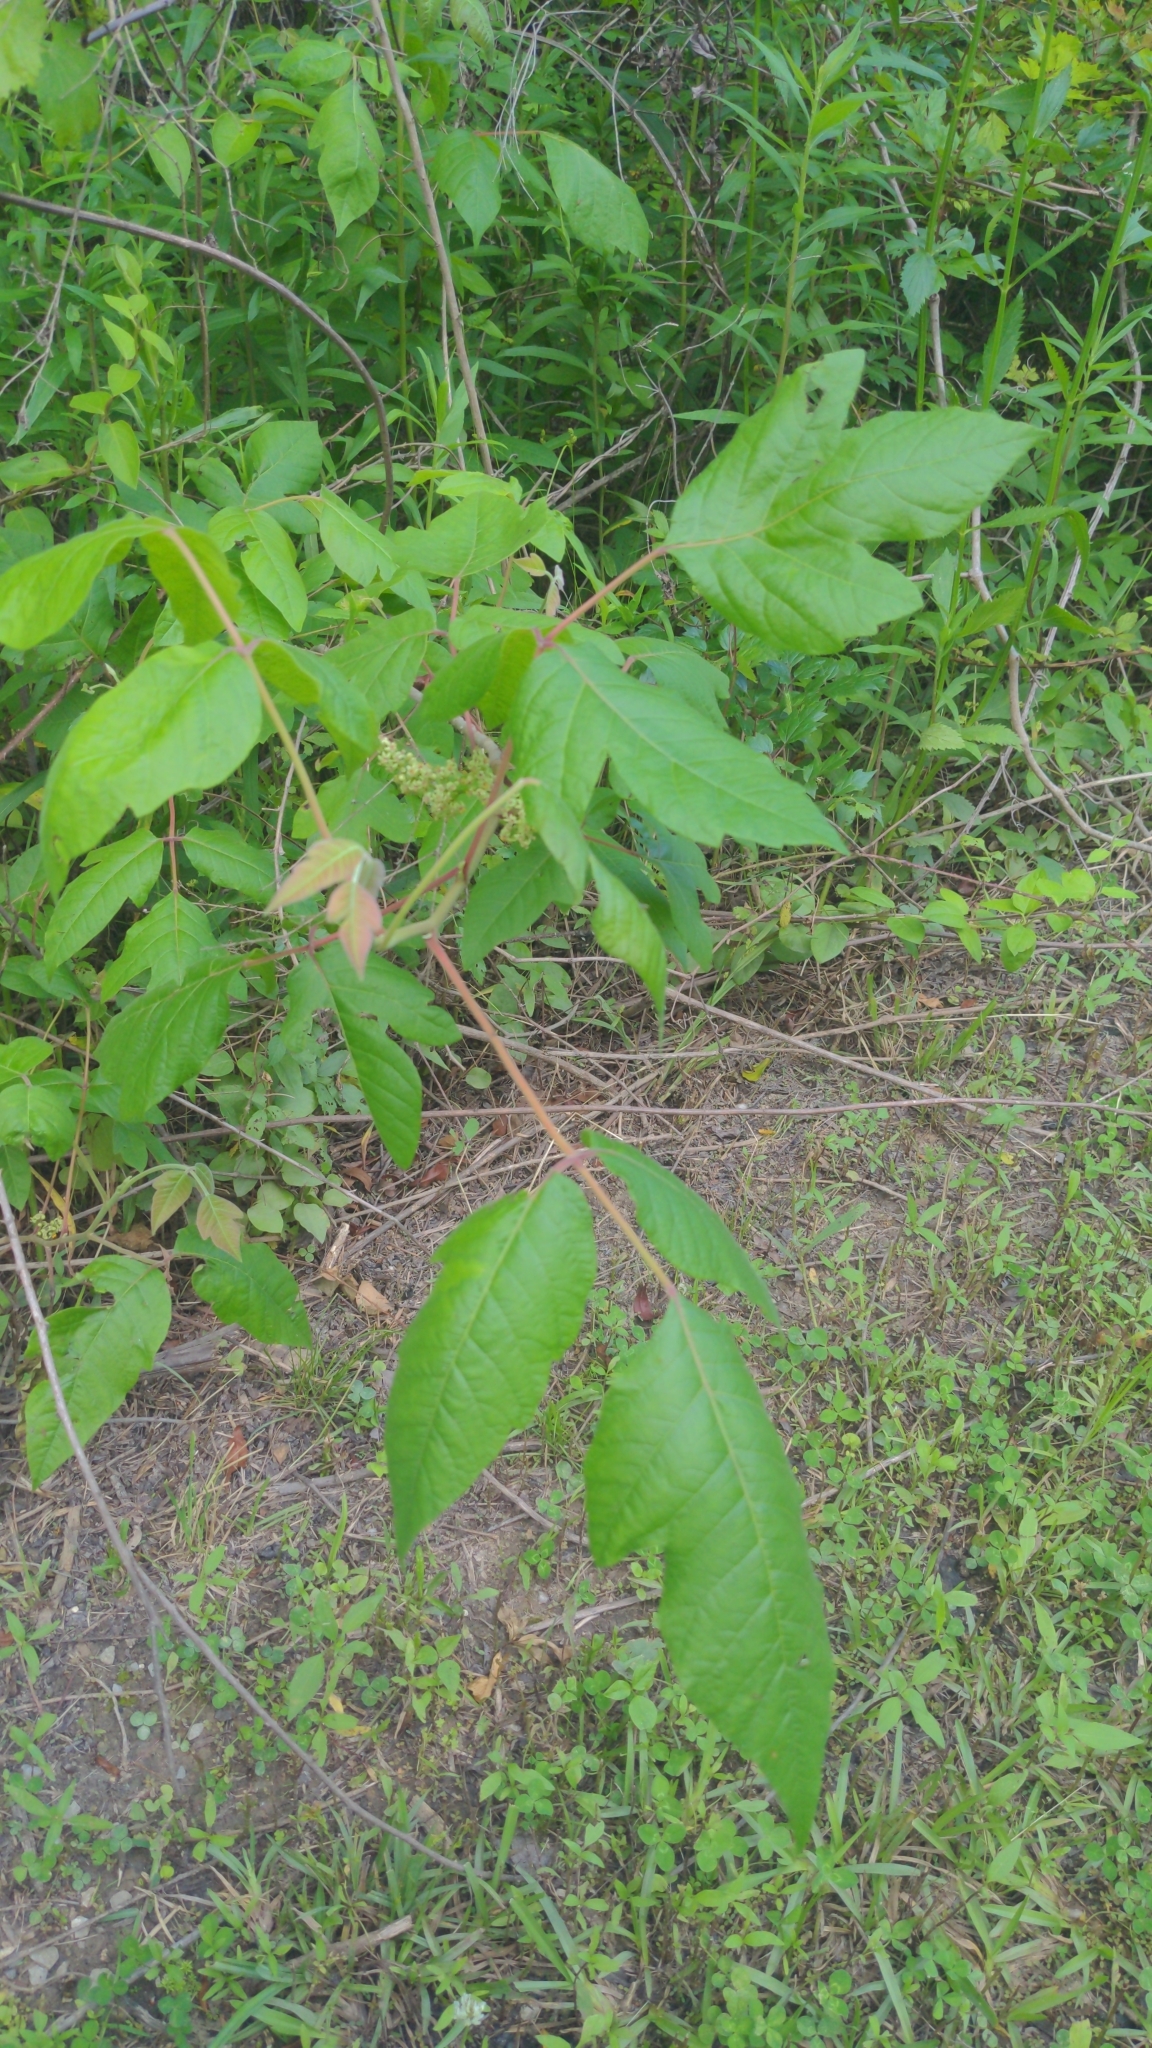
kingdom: Plantae
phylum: Tracheophyta
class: Magnoliopsida
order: Sapindales
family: Anacardiaceae
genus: Toxicodendron
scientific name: Toxicodendron radicans
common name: Poison ivy
